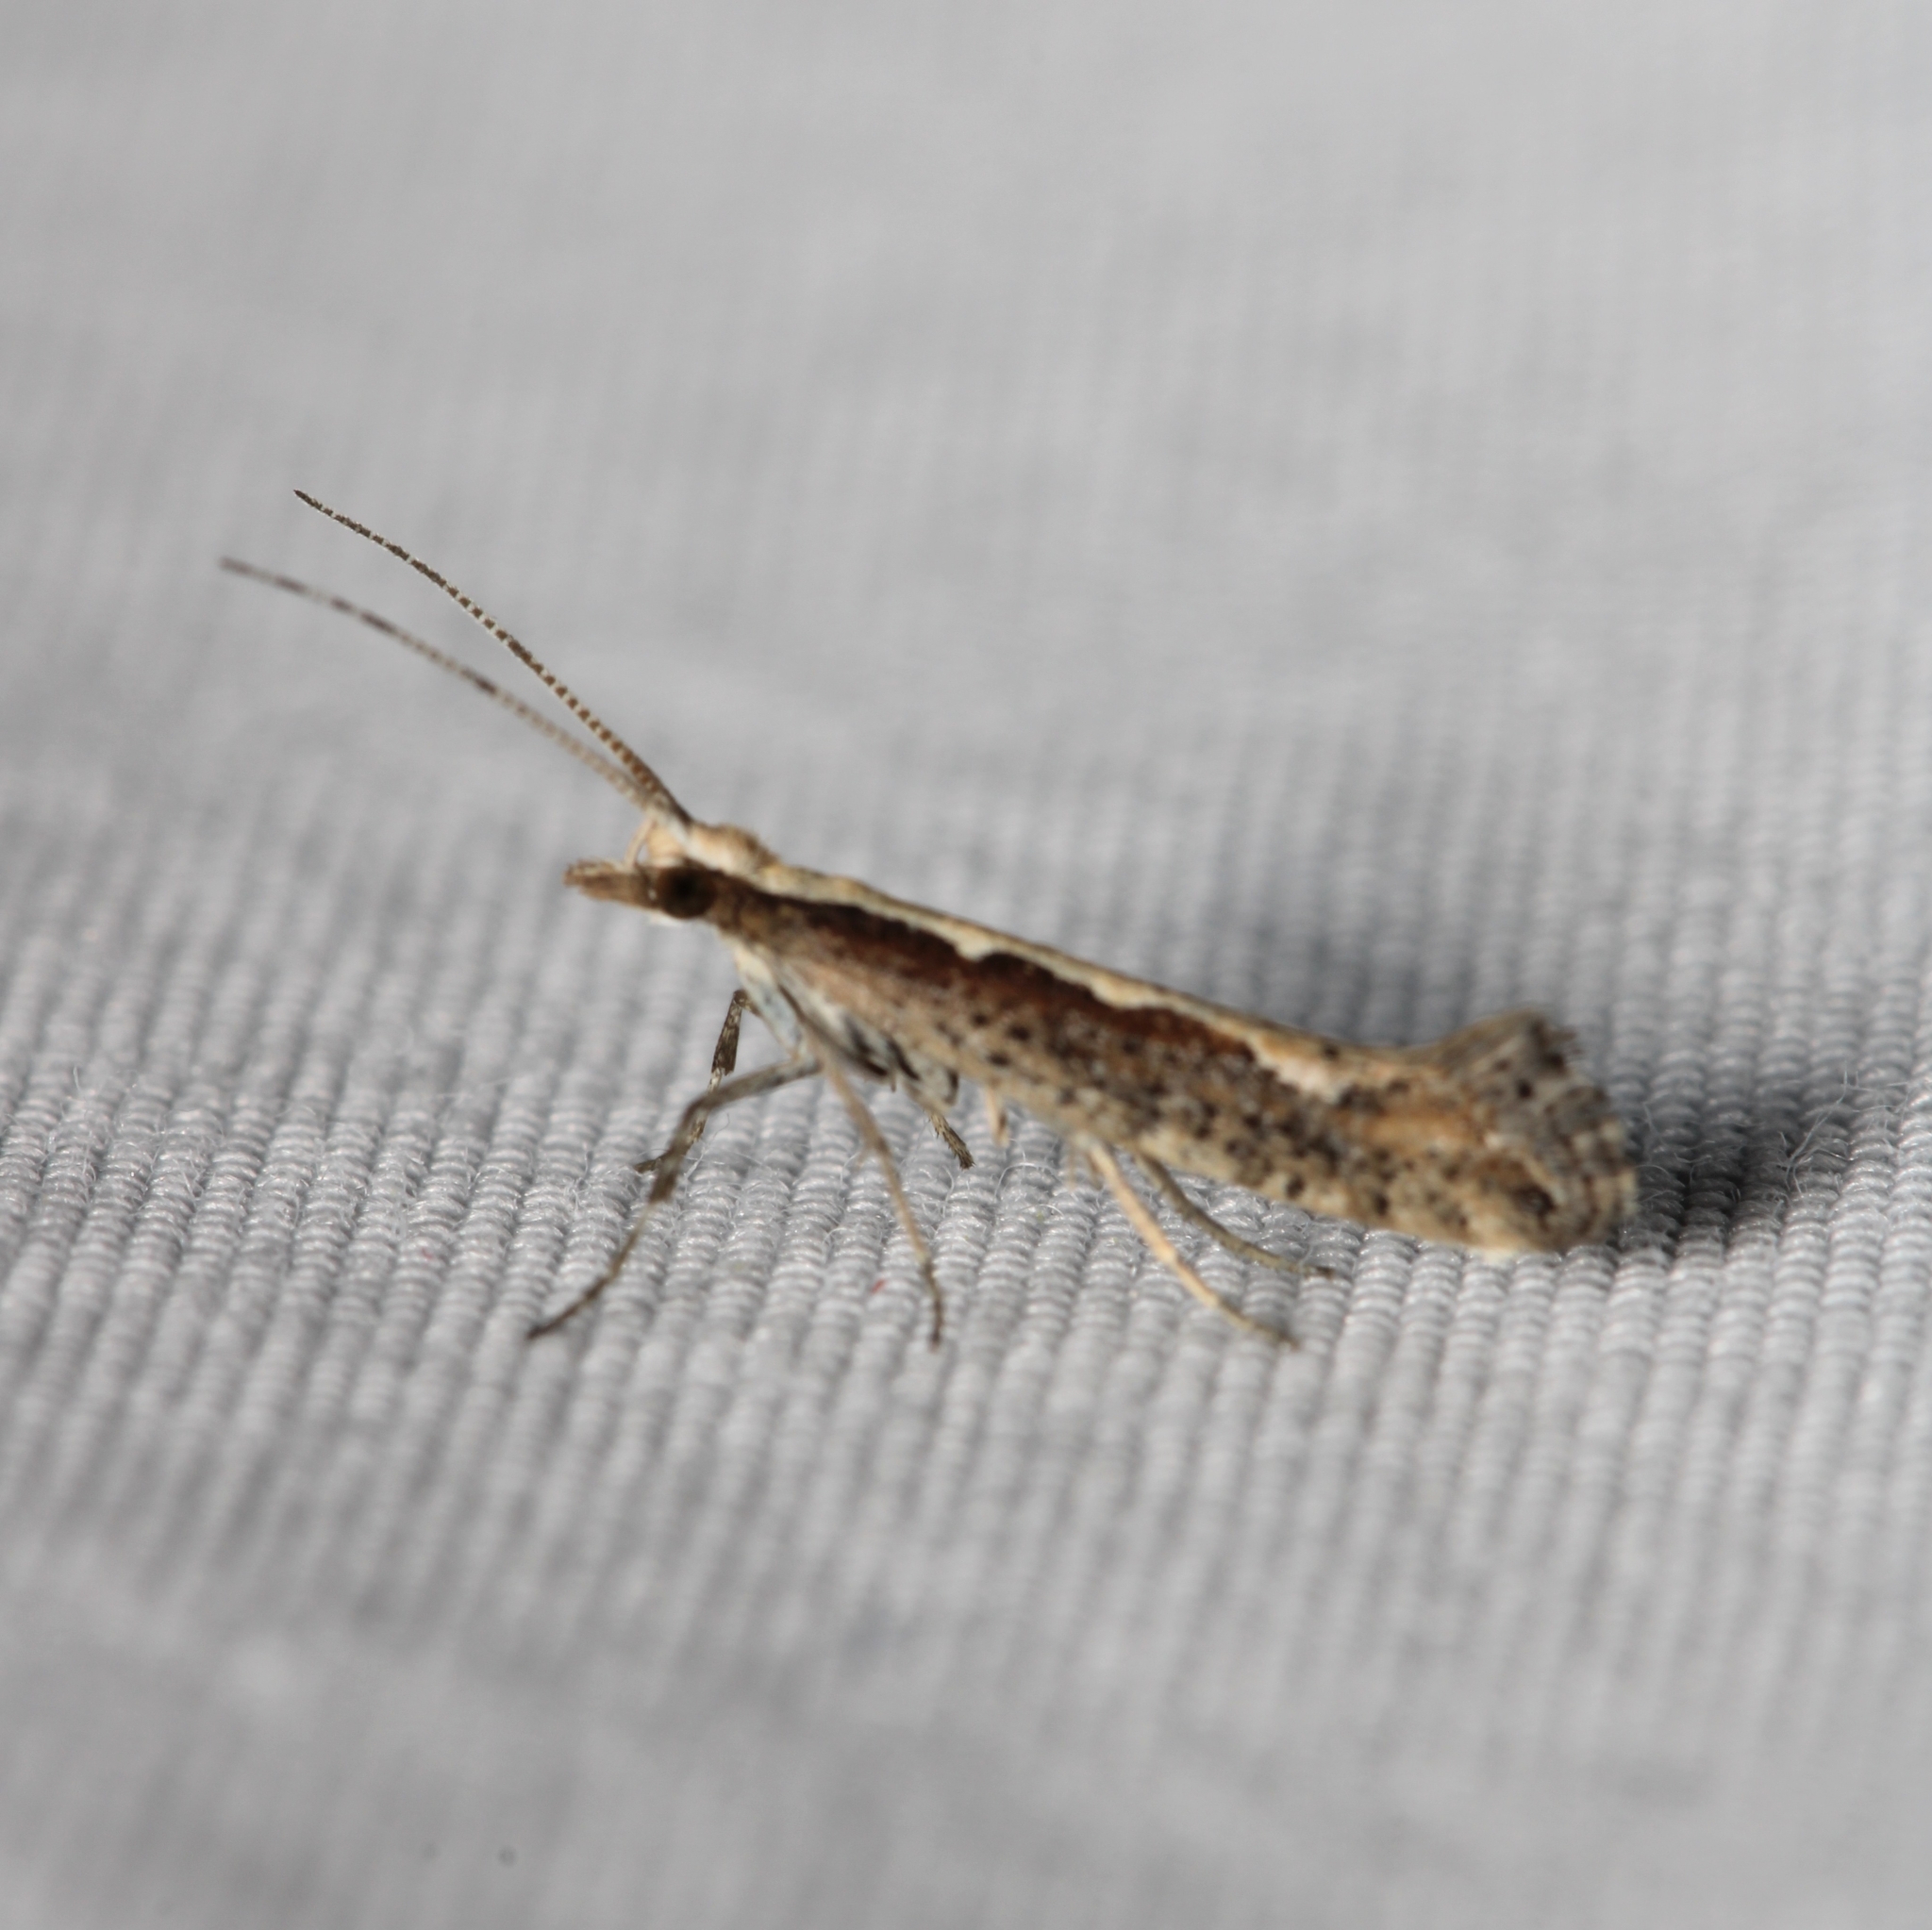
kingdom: Animalia
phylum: Arthropoda
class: Insecta
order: Lepidoptera
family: Plutellidae
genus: Plutella
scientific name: Plutella xylostella
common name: Diamond-back moth
